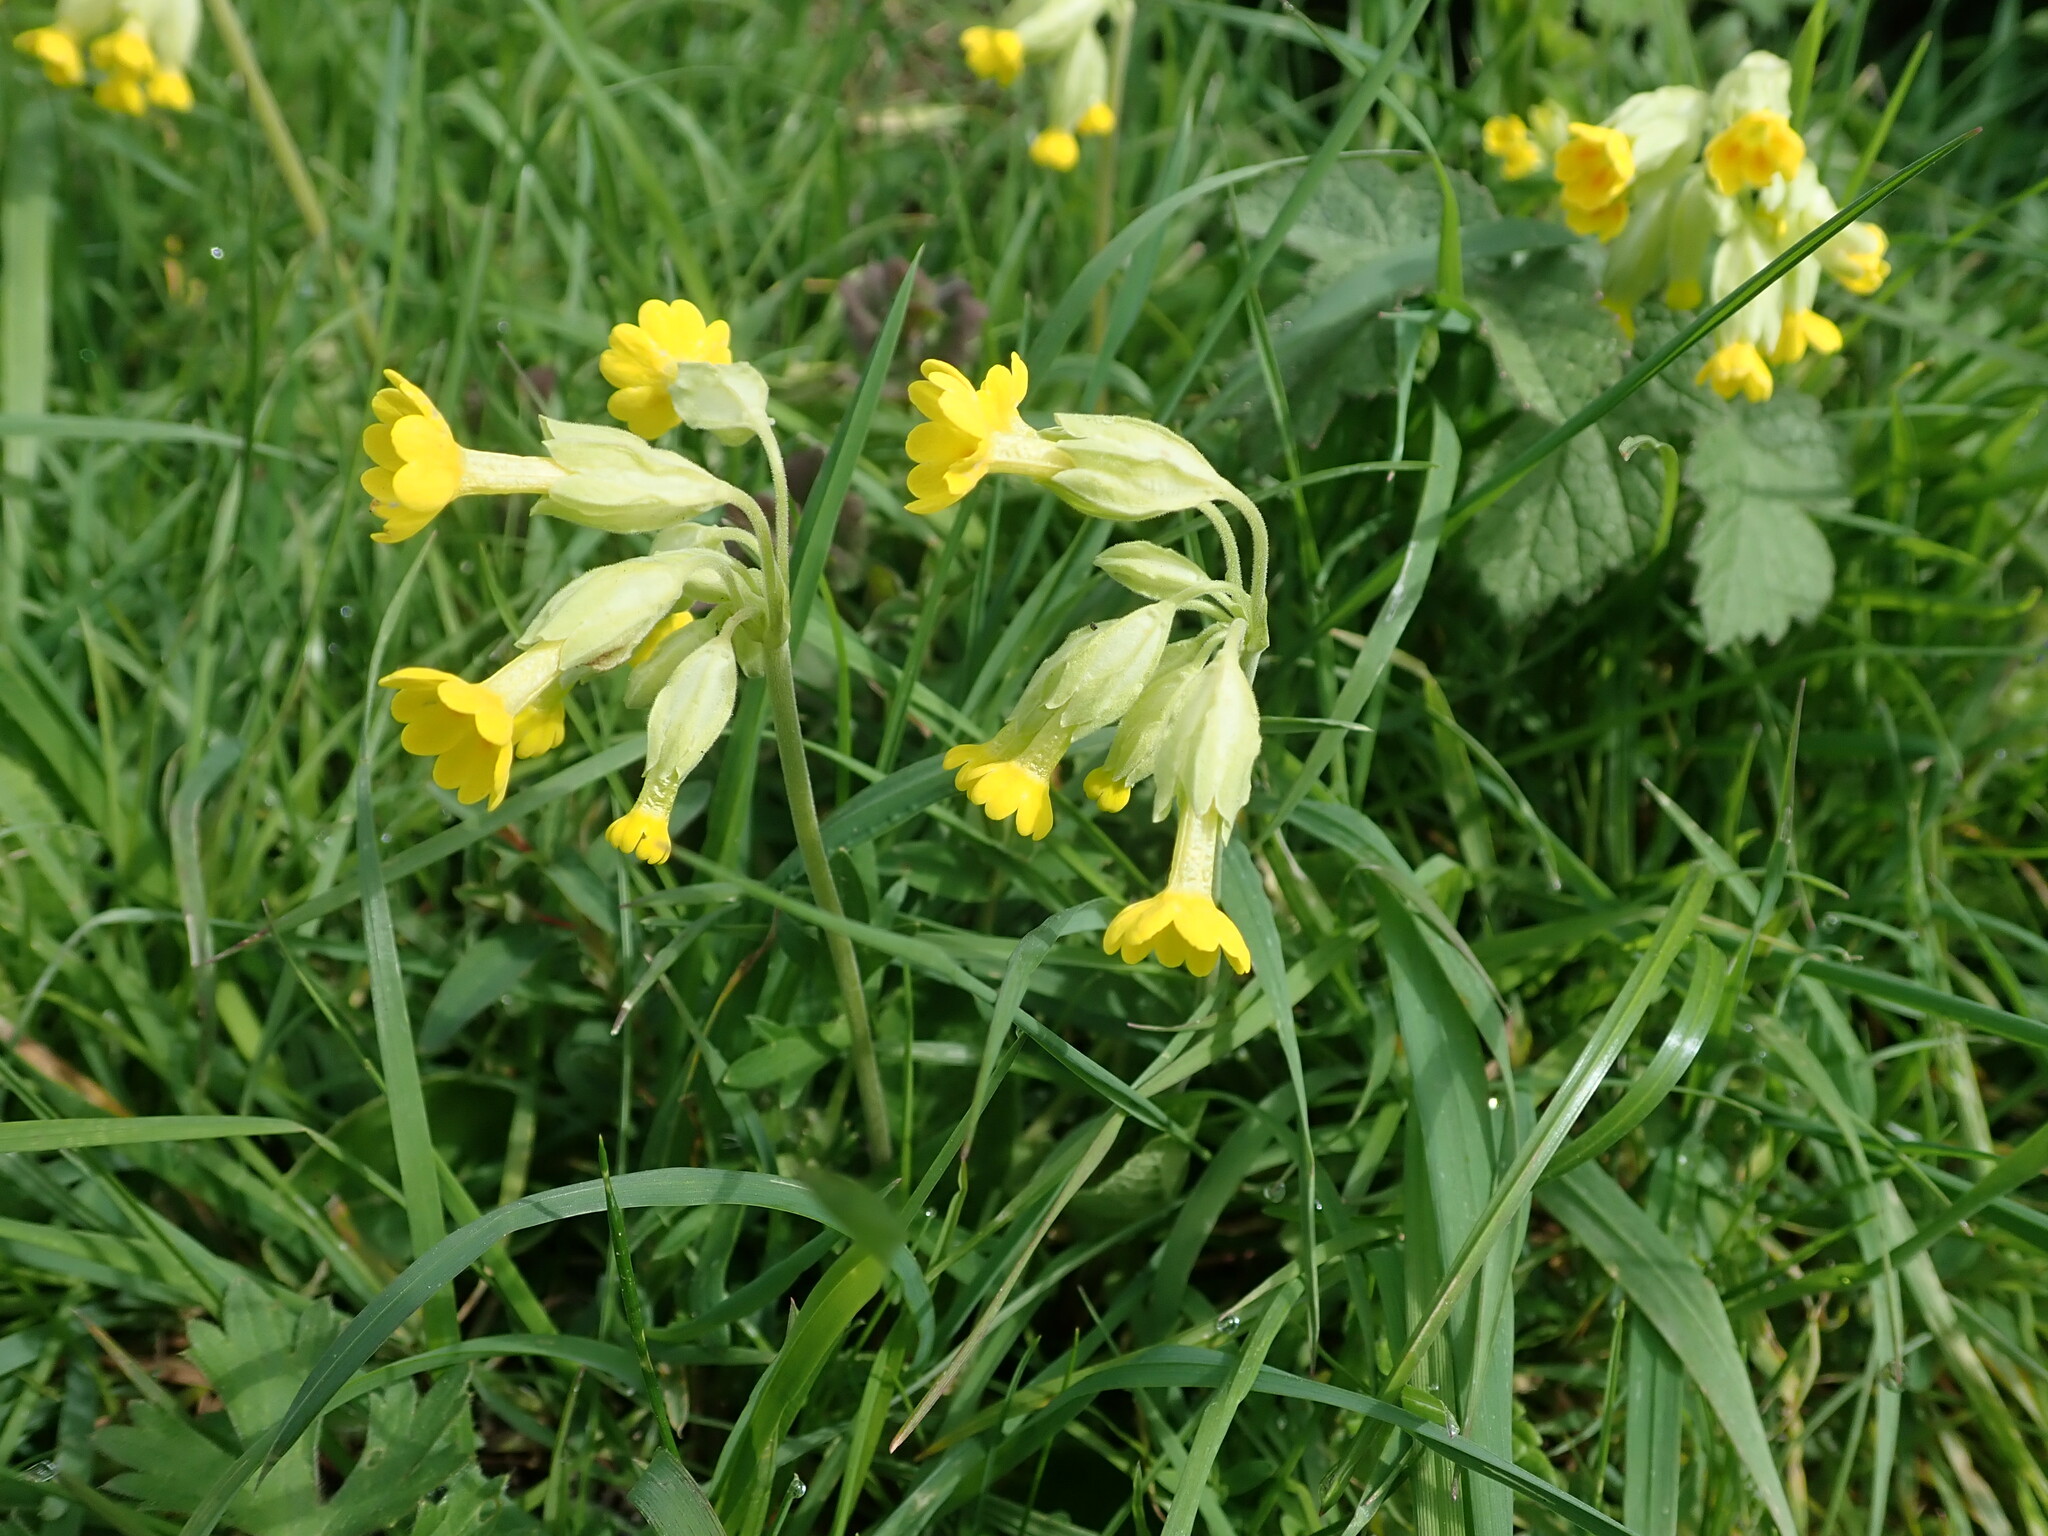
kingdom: Plantae
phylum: Tracheophyta
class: Magnoliopsida
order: Ericales
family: Primulaceae
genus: Primula
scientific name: Primula veris
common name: Cowslip
